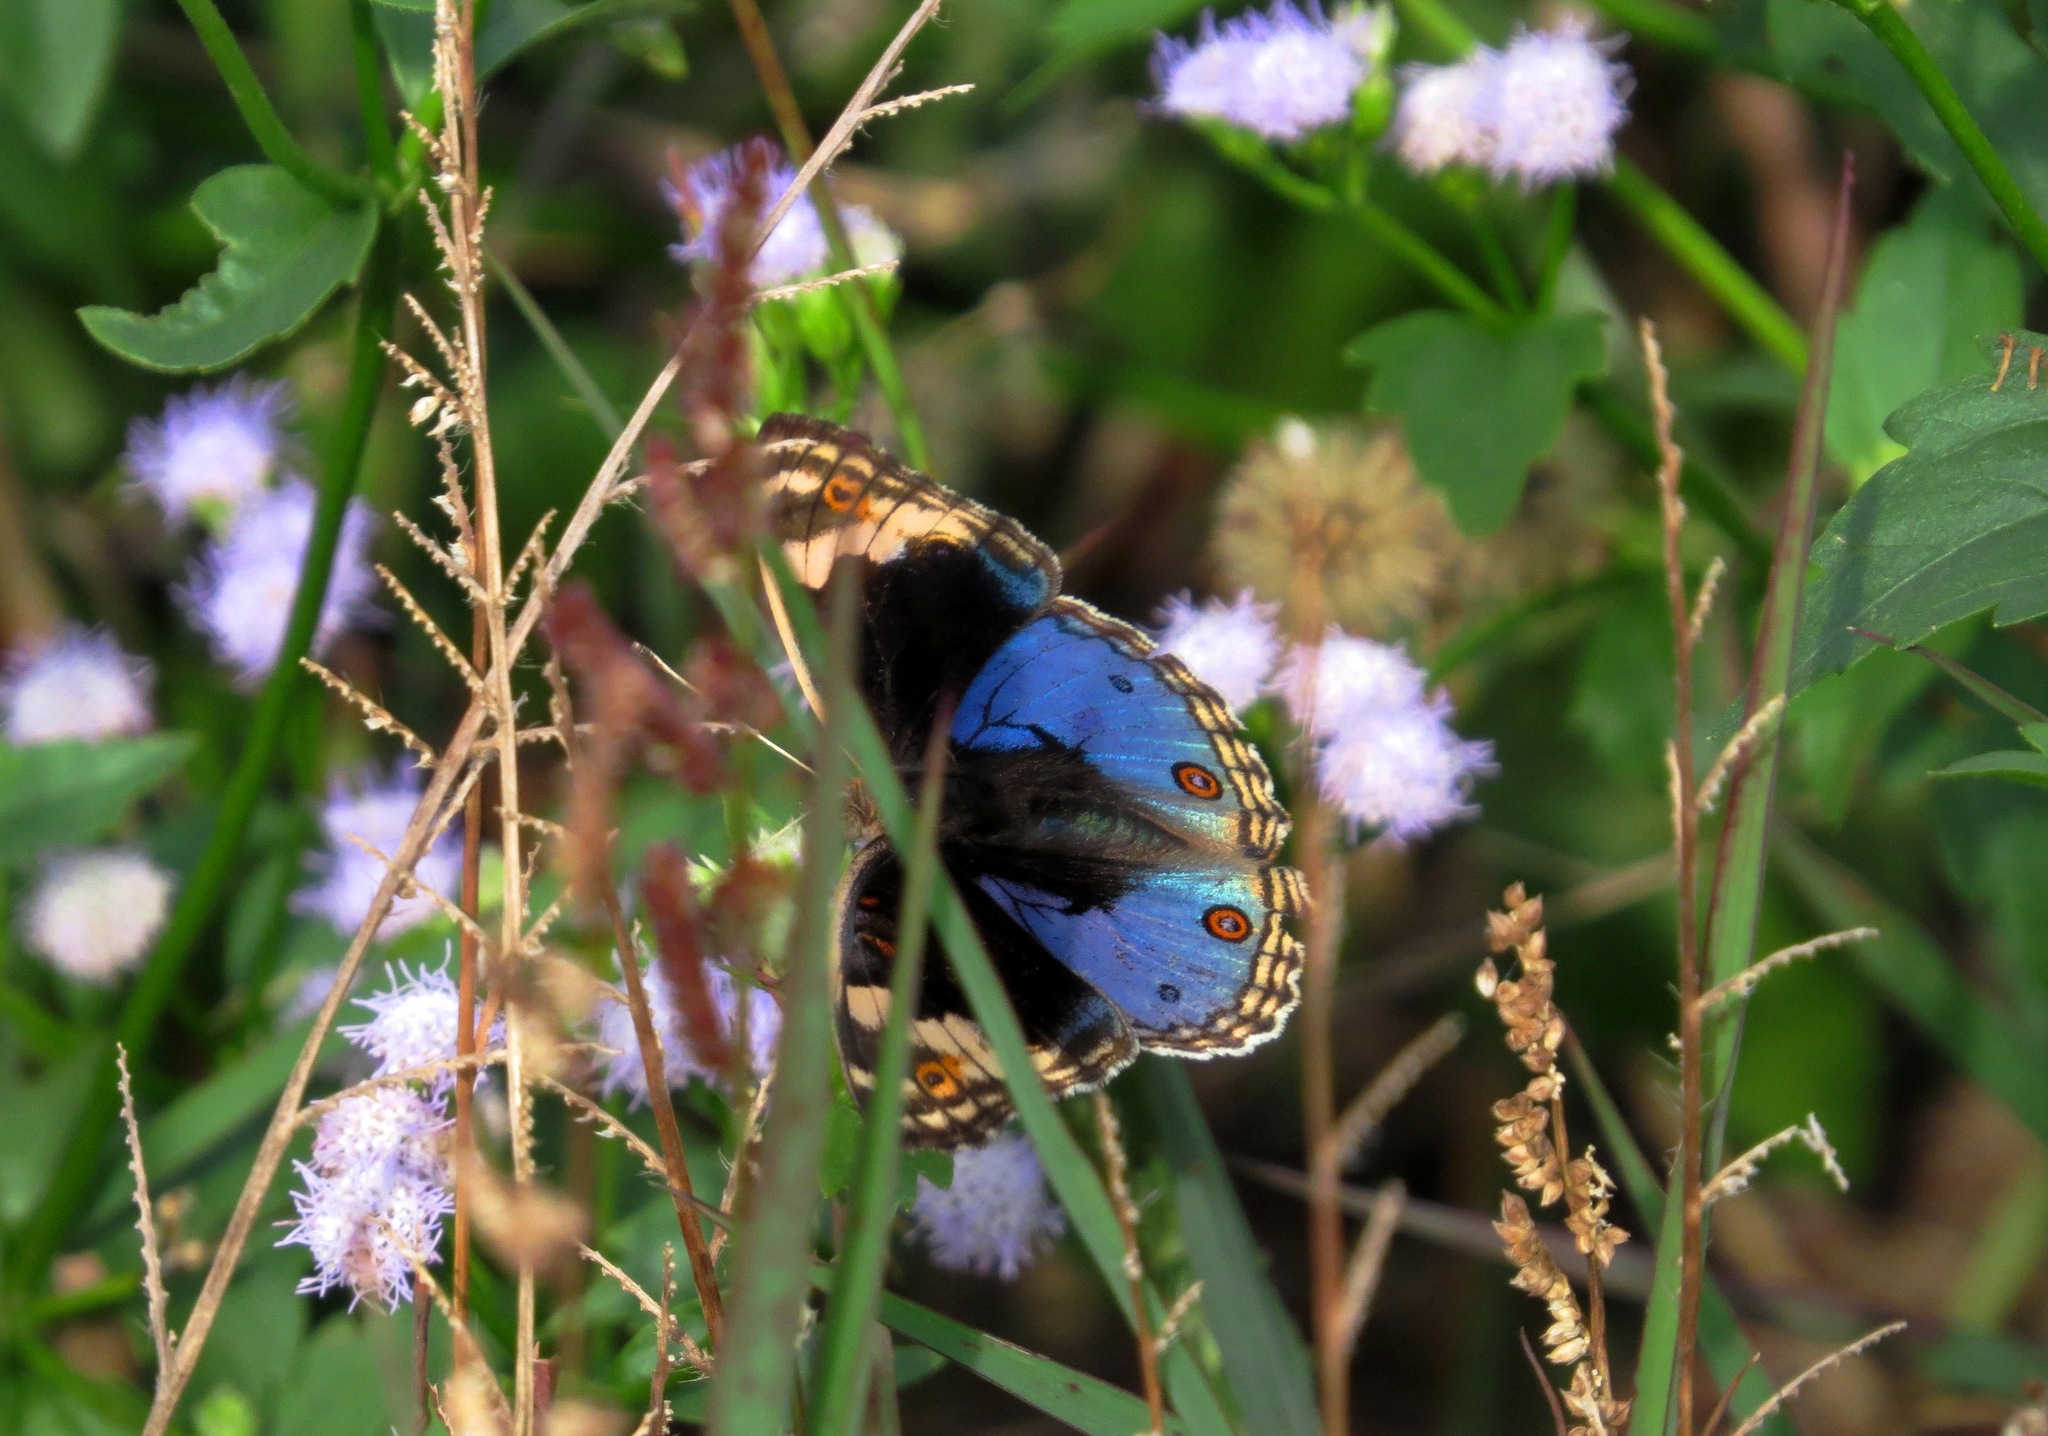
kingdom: Animalia
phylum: Arthropoda
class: Insecta
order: Lepidoptera
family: Nymphalidae
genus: Junonia
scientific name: Junonia orithya
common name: Blue pansy
